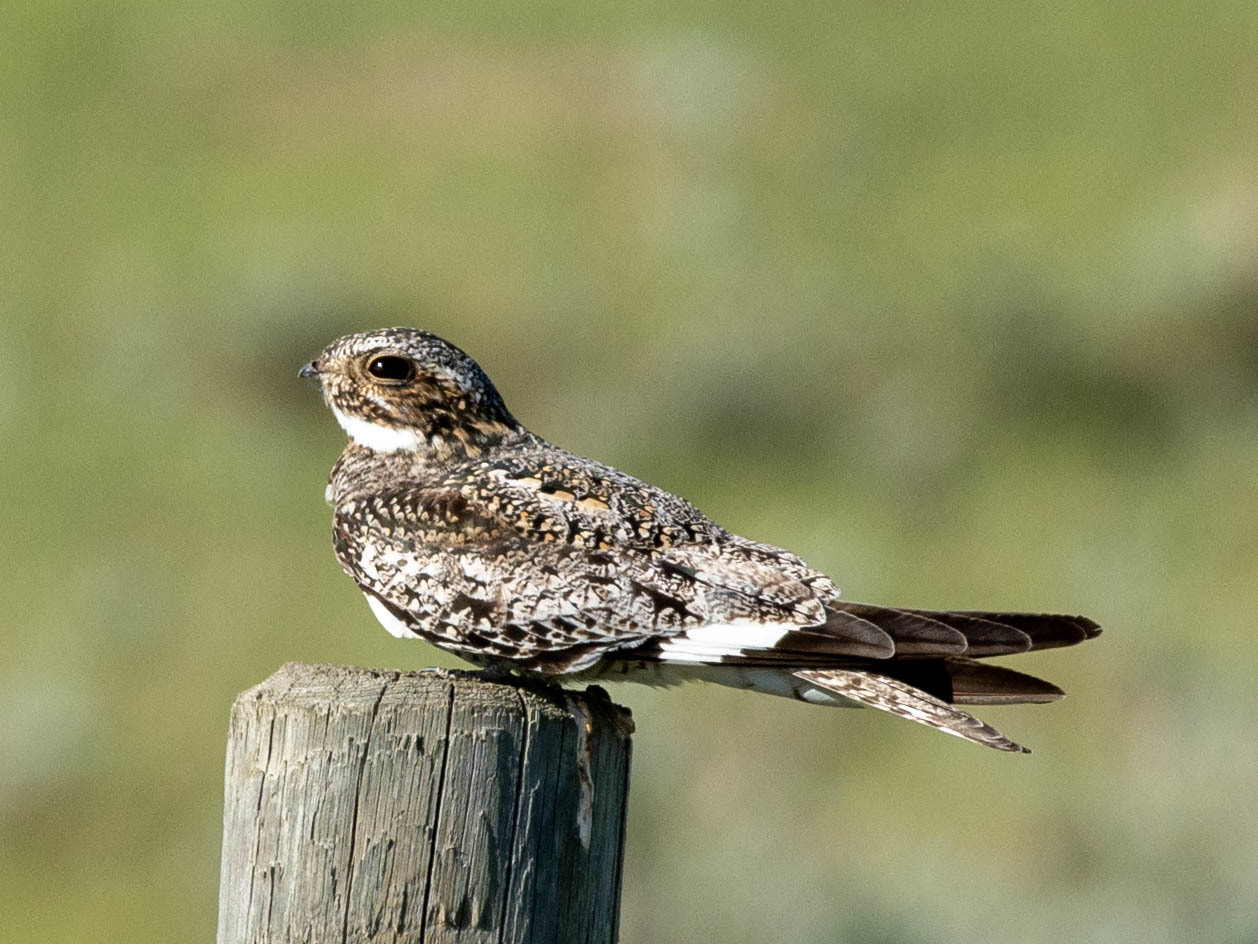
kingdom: Animalia
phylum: Chordata
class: Aves
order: Caprimulgiformes
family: Caprimulgidae
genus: Chordeiles
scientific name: Chordeiles minor
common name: Common nighthawk
